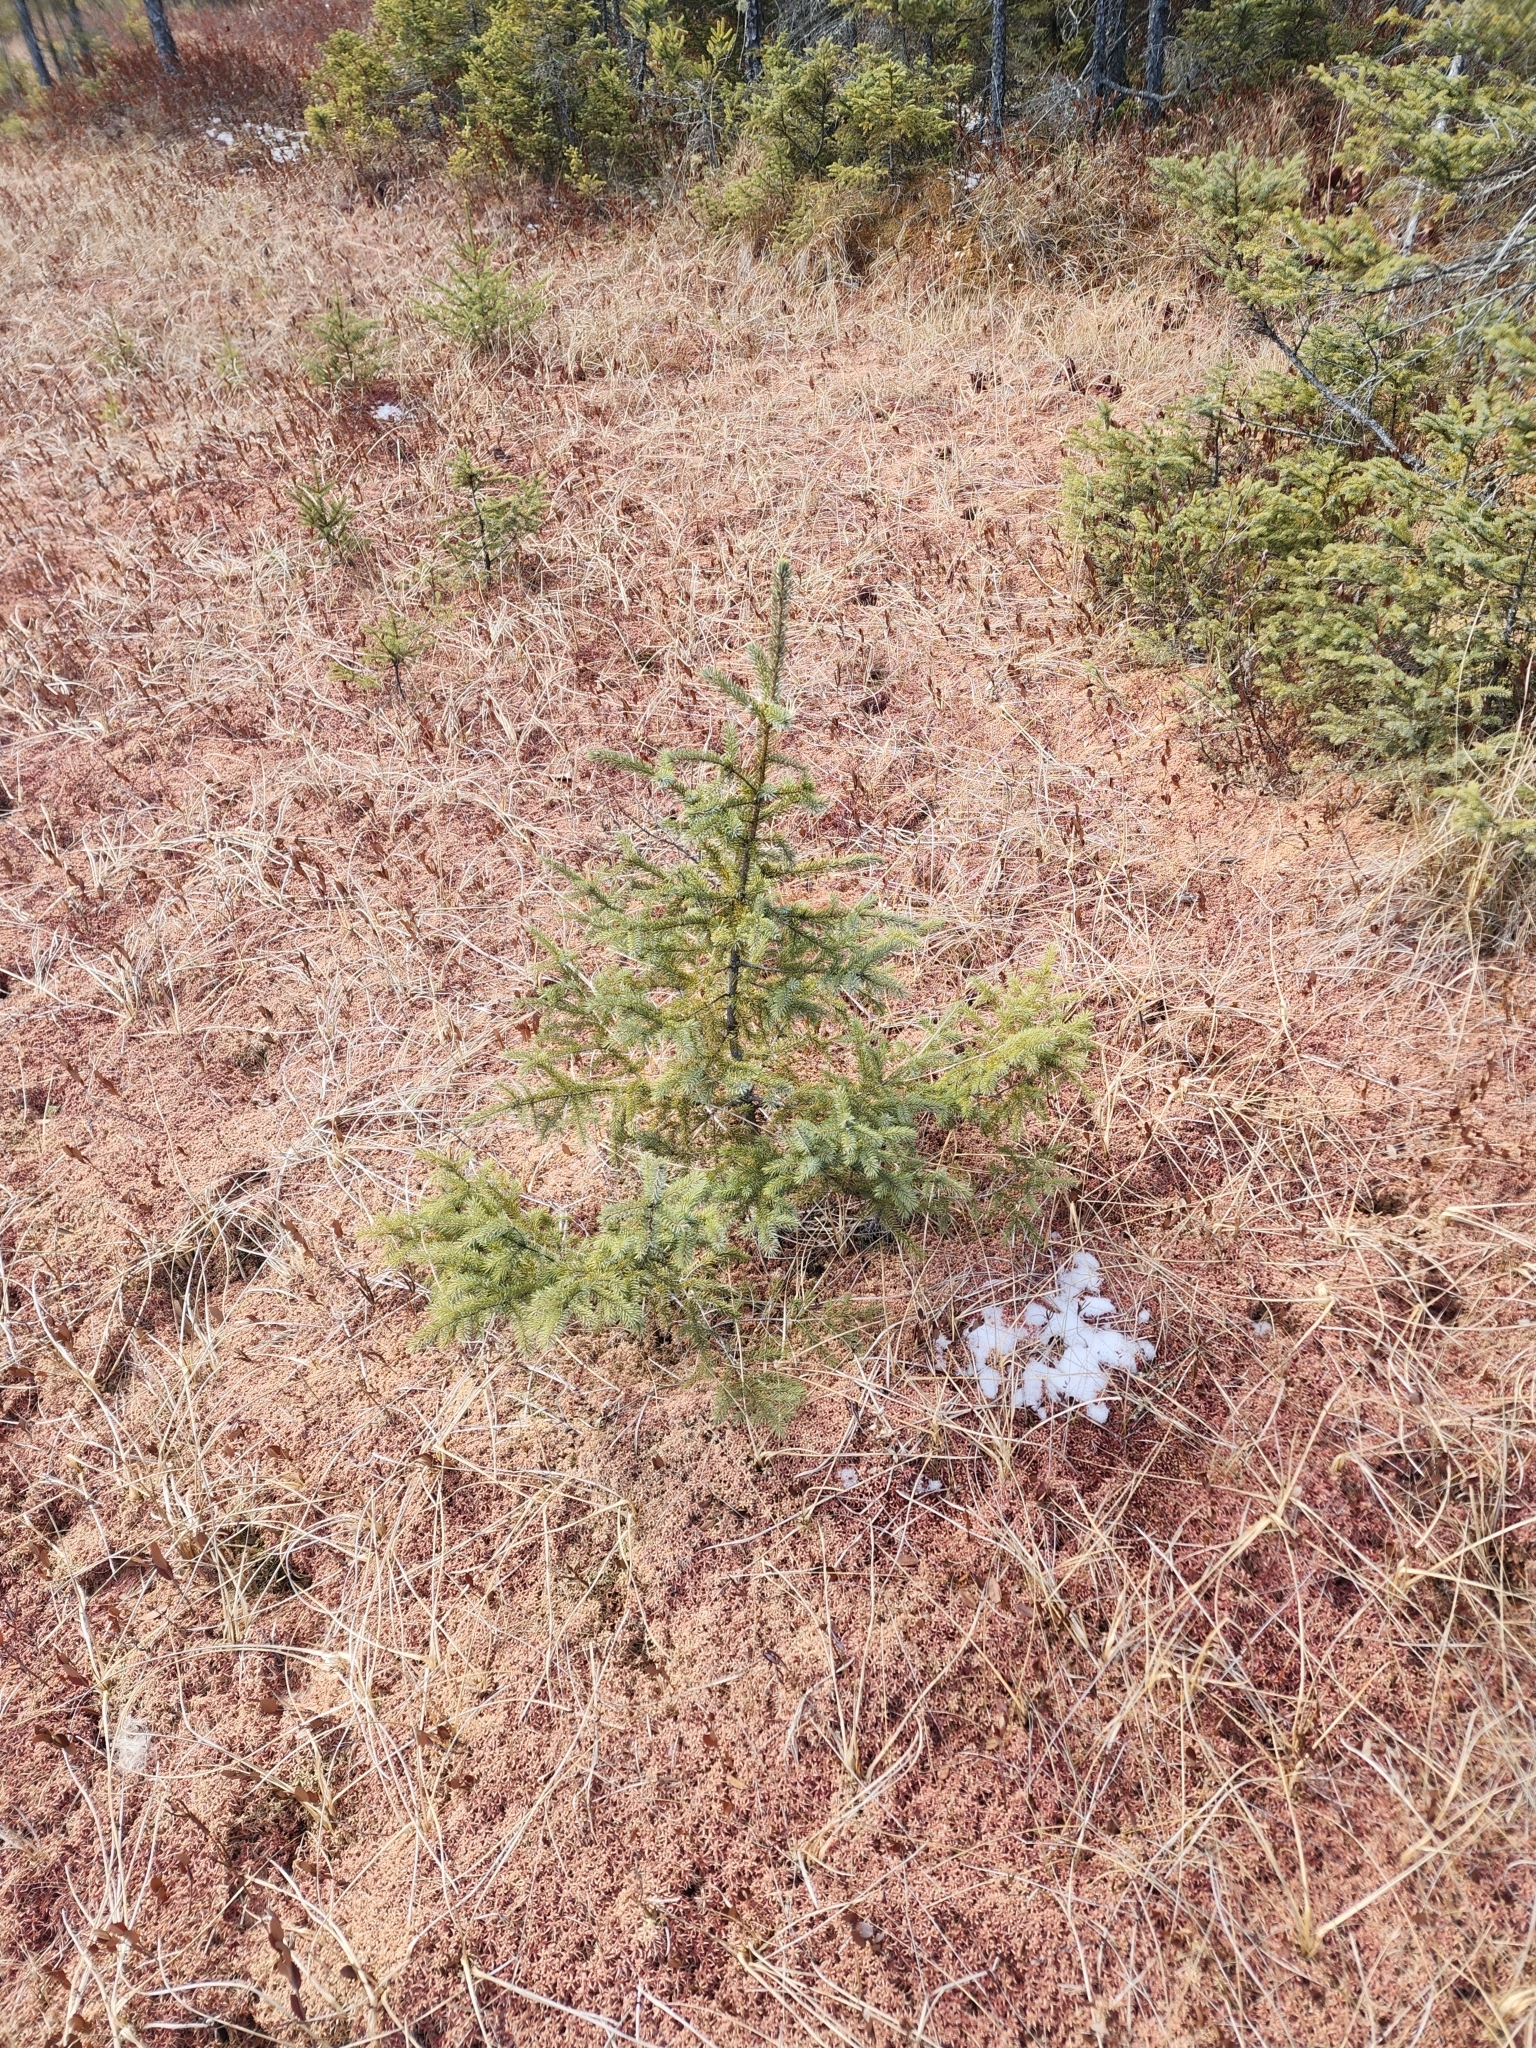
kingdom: Plantae
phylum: Tracheophyta
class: Pinopsida
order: Pinales
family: Pinaceae
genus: Picea
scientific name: Picea mariana
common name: Black spruce
